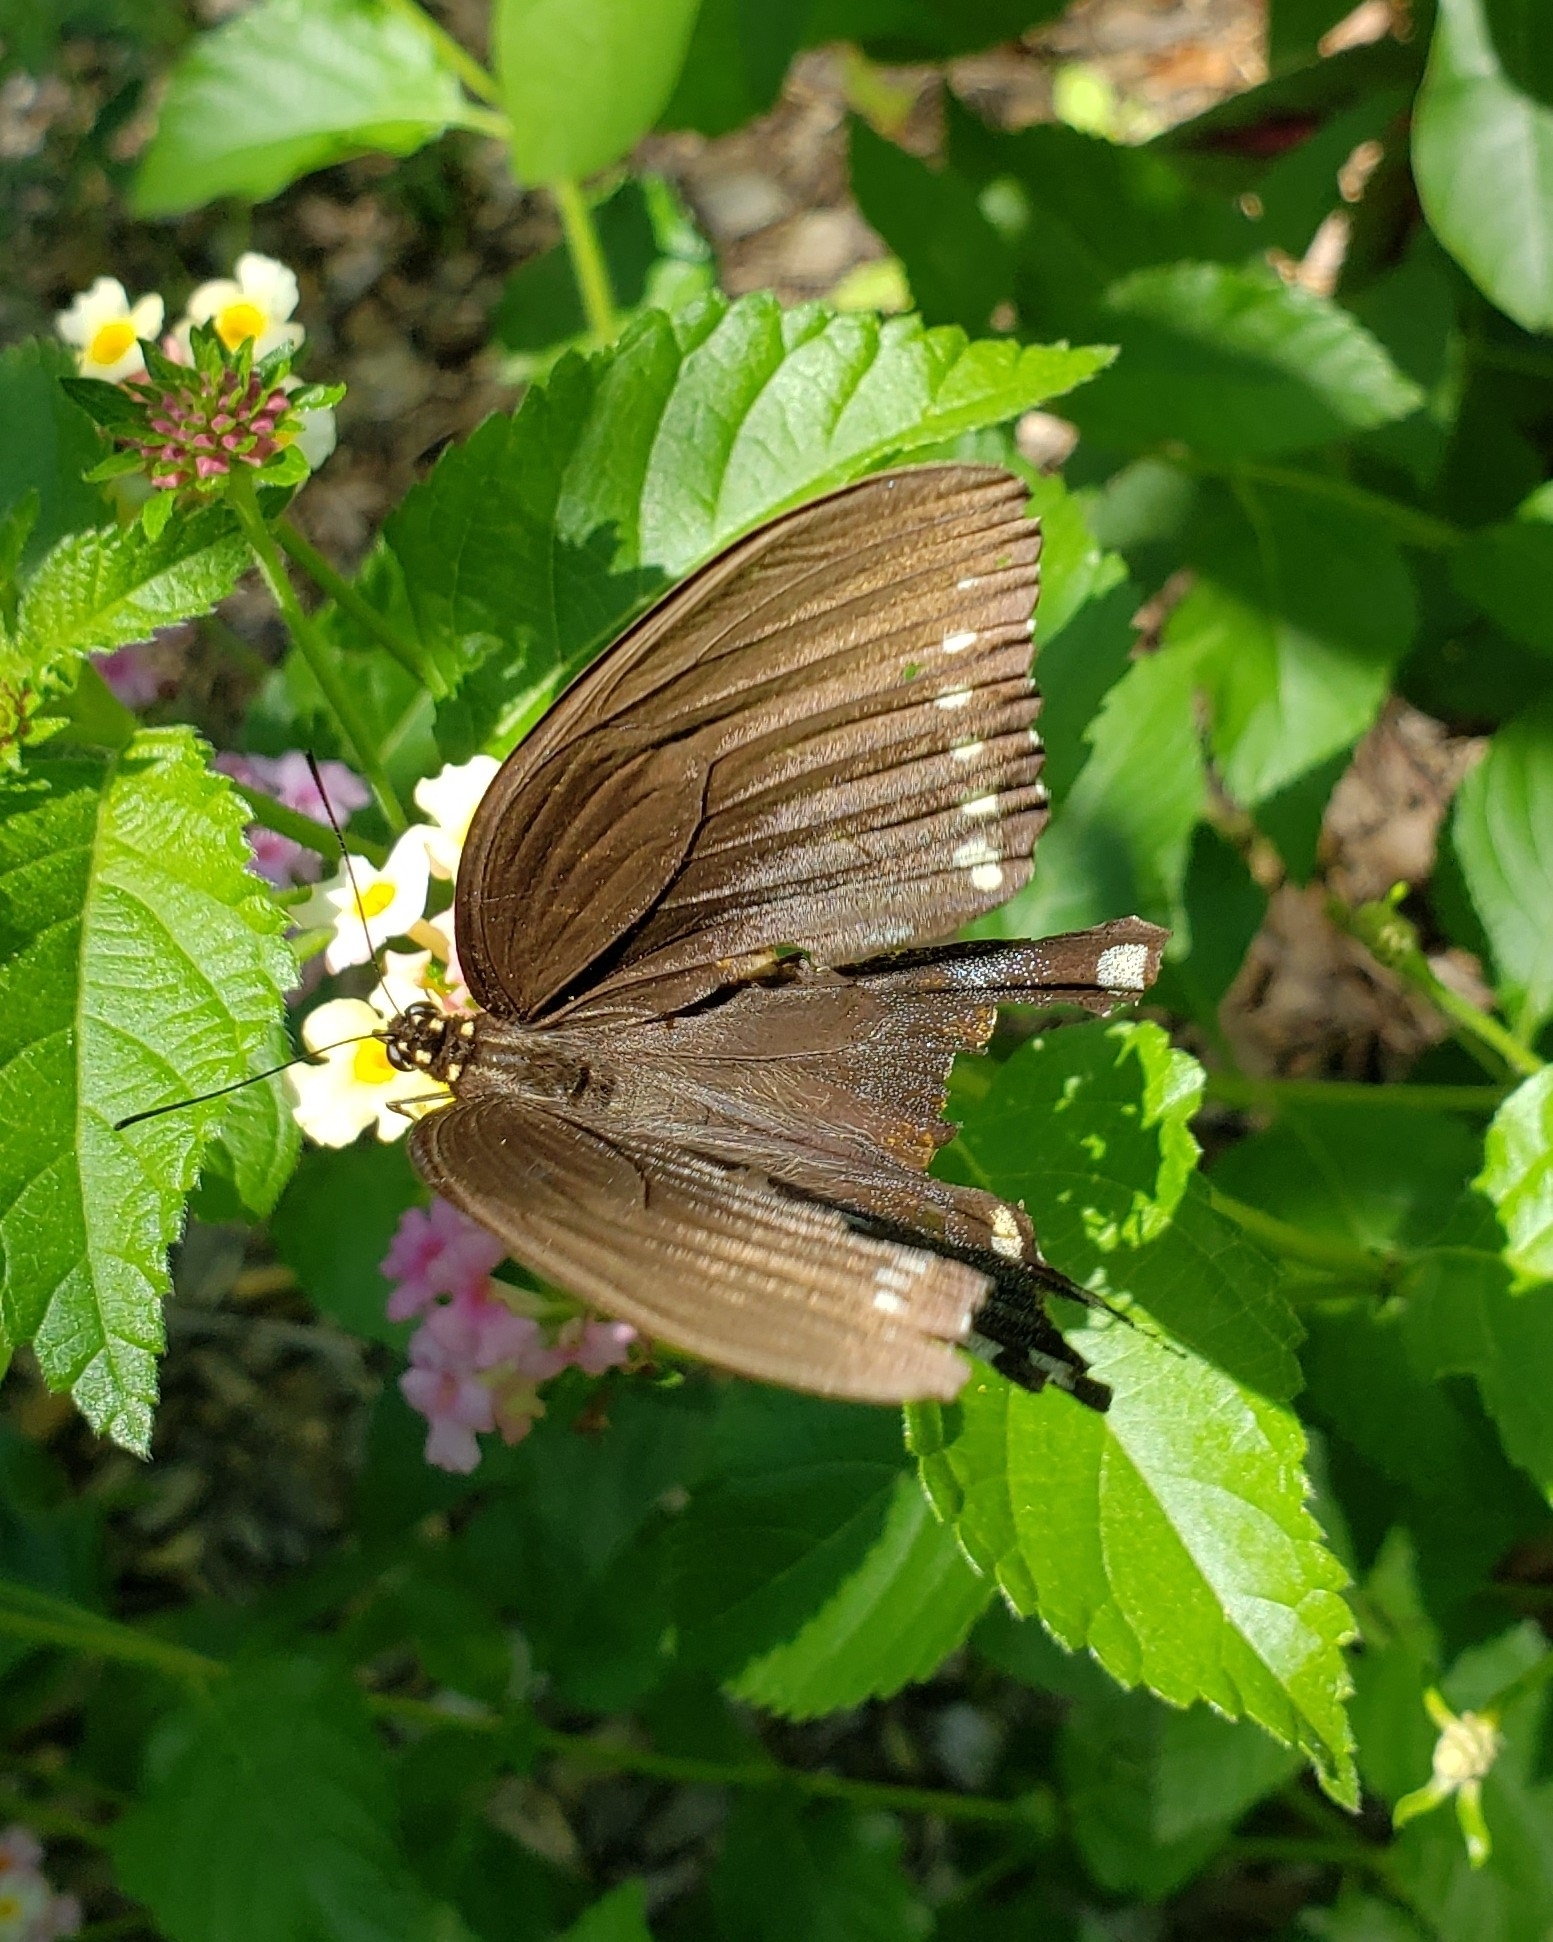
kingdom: Animalia
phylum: Arthropoda
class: Insecta
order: Lepidoptera
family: Papilionidae
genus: Papilio
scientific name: Papilio troilus
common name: Spicebush swallowtail
